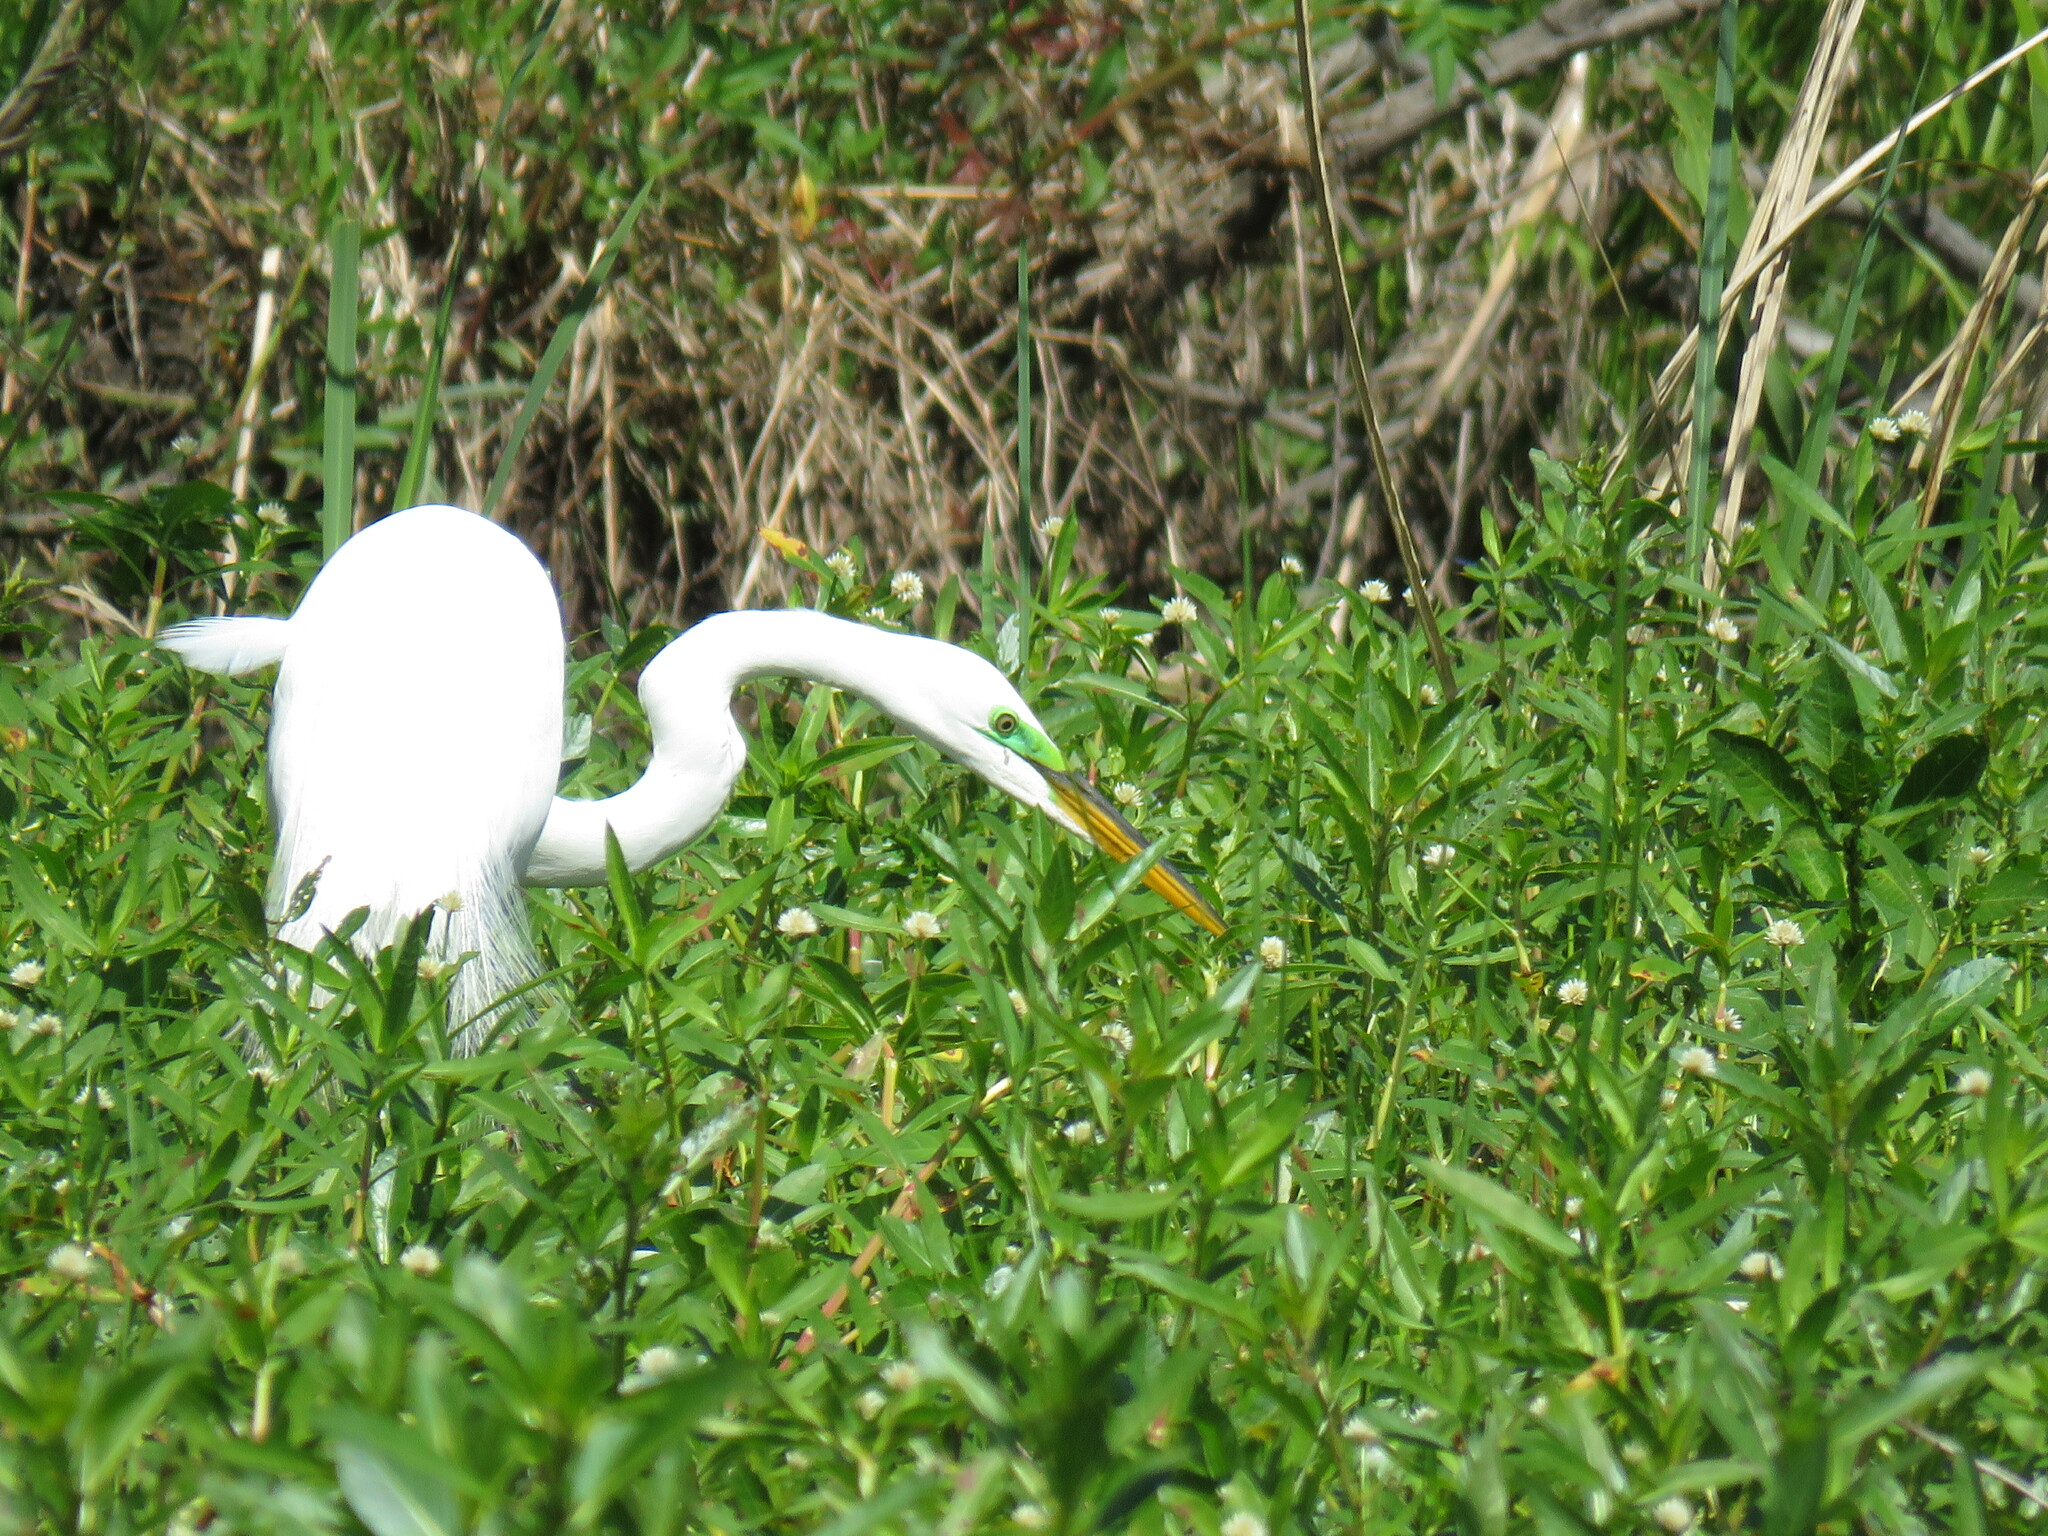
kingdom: Animalia
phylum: Chordata
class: Aves
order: Pelecaniformes
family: Ardeidae
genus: Ardea
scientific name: Ardea alba
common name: Great egret
